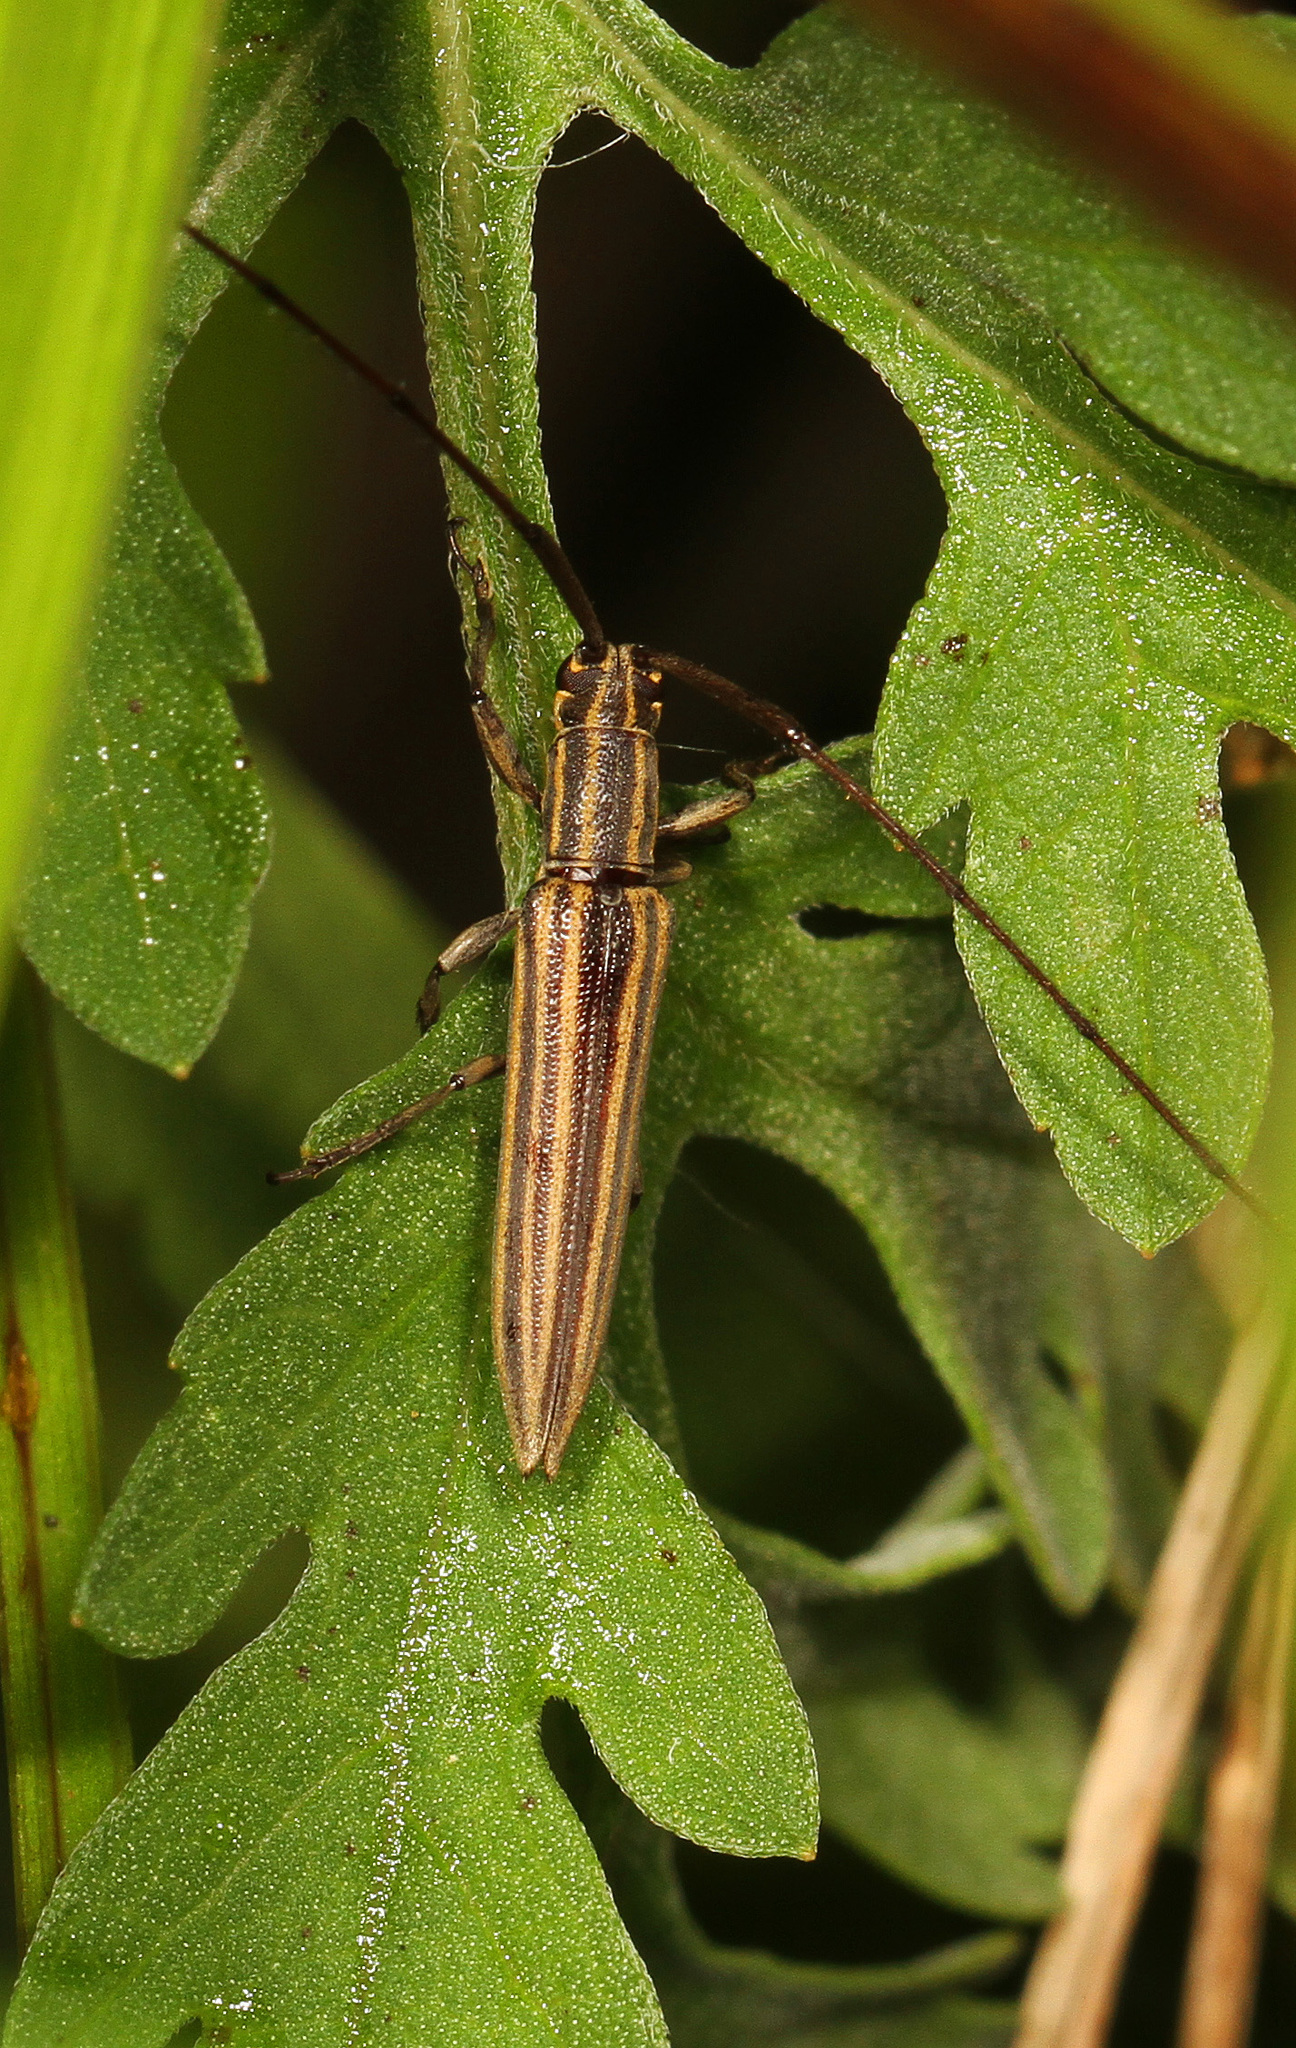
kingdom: Animalia
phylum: Arthropoda
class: Insecta
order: Coleoptera
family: Cerambycidae
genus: Hippopsis
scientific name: Hippopsis
